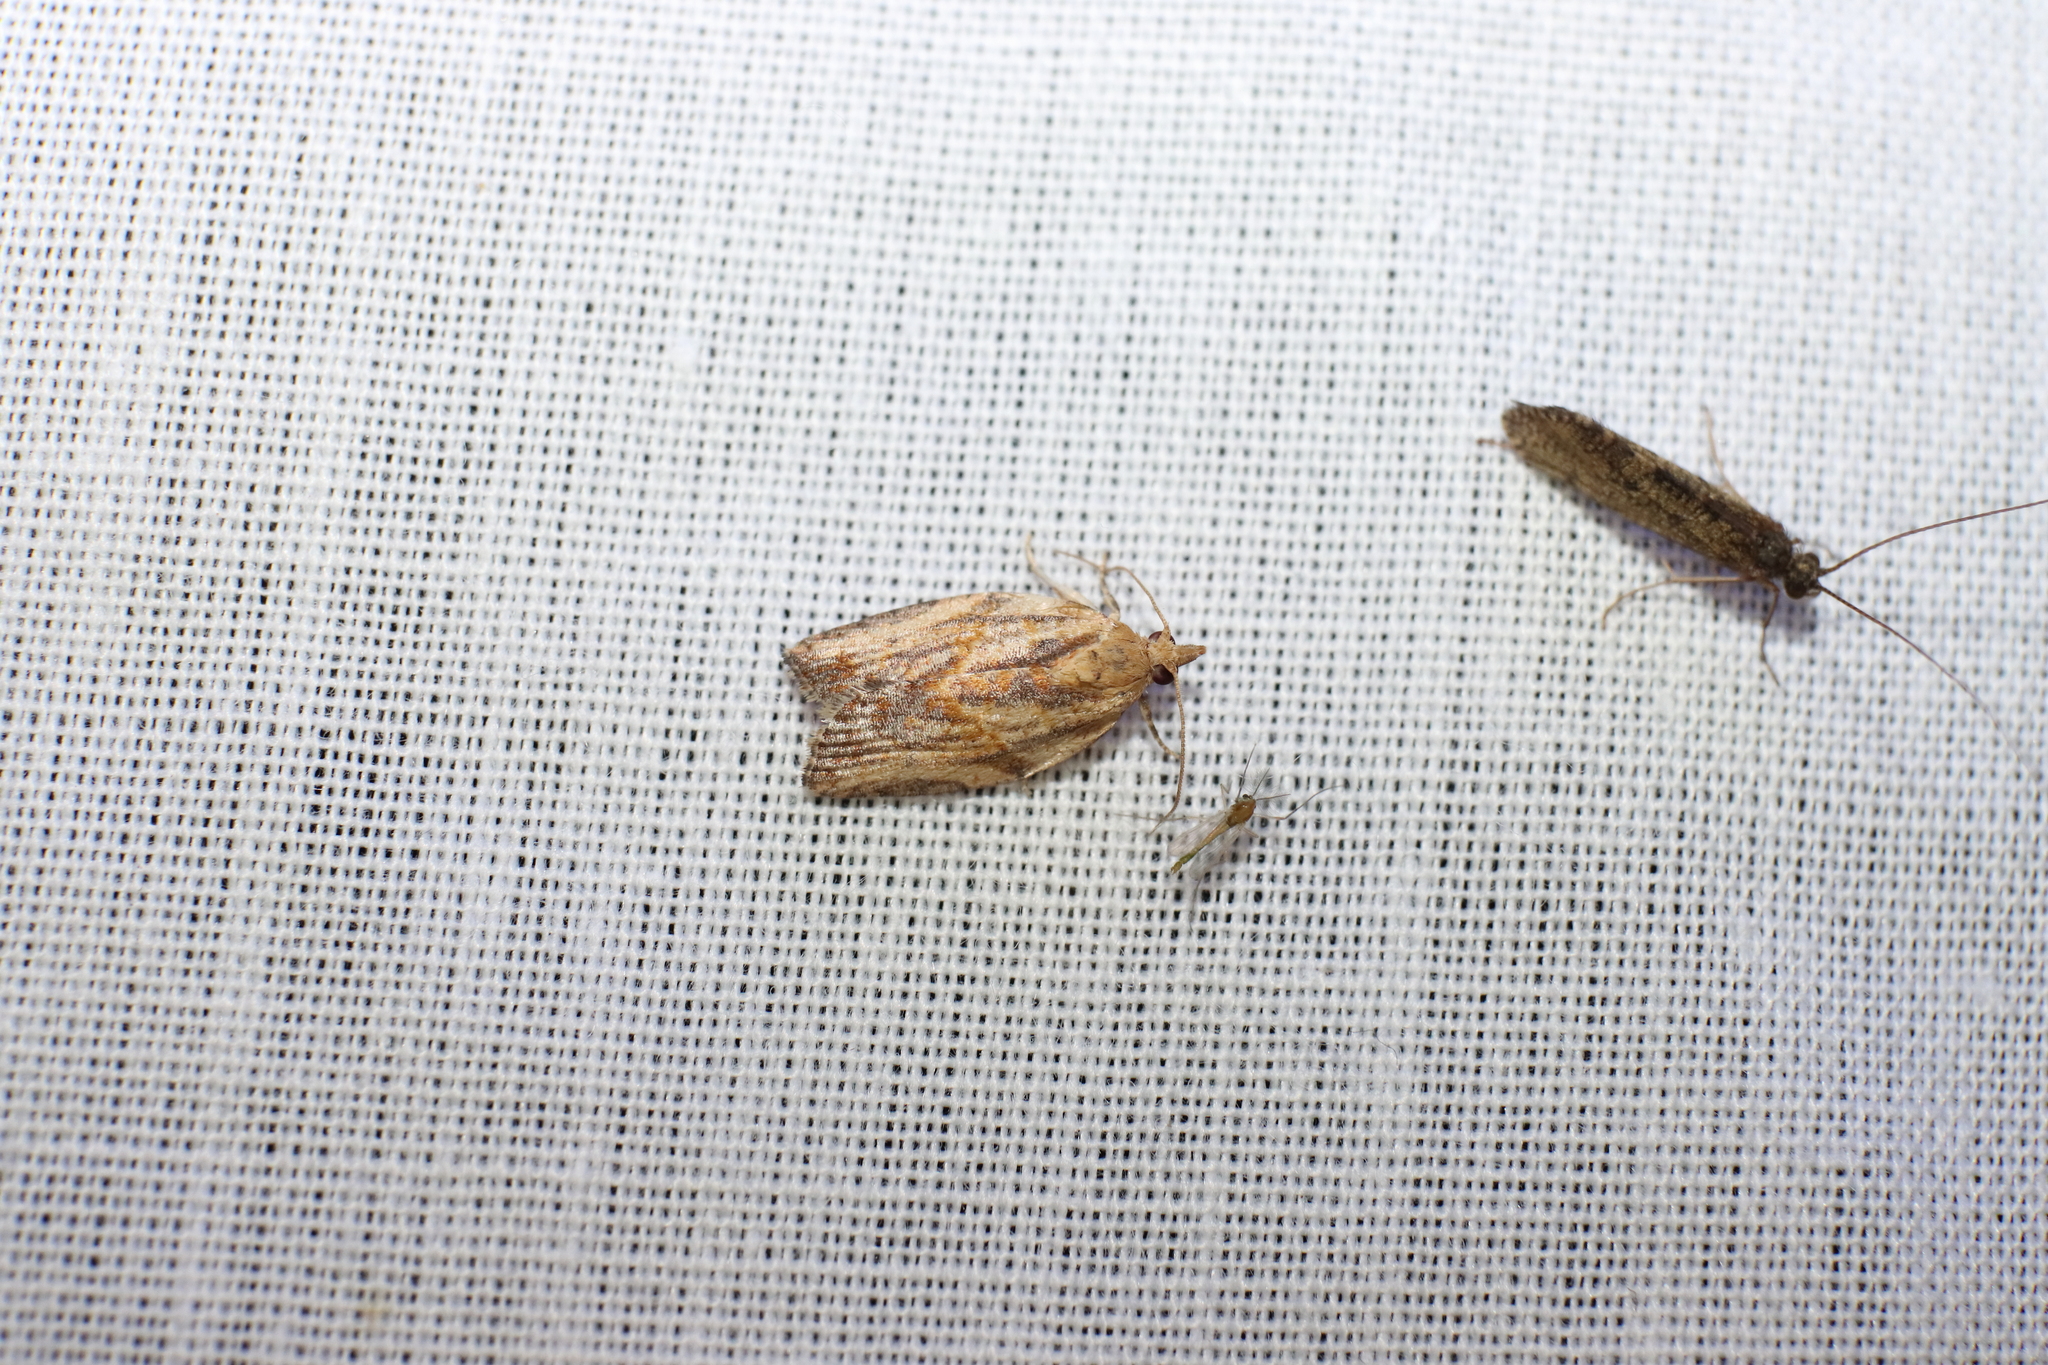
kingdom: Animalia
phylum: Arthropoda
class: Insecta
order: Lepidoptera
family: Tortricidae
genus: Epiphyas
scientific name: Epiphyas postvittana
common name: Light brown apple moth
